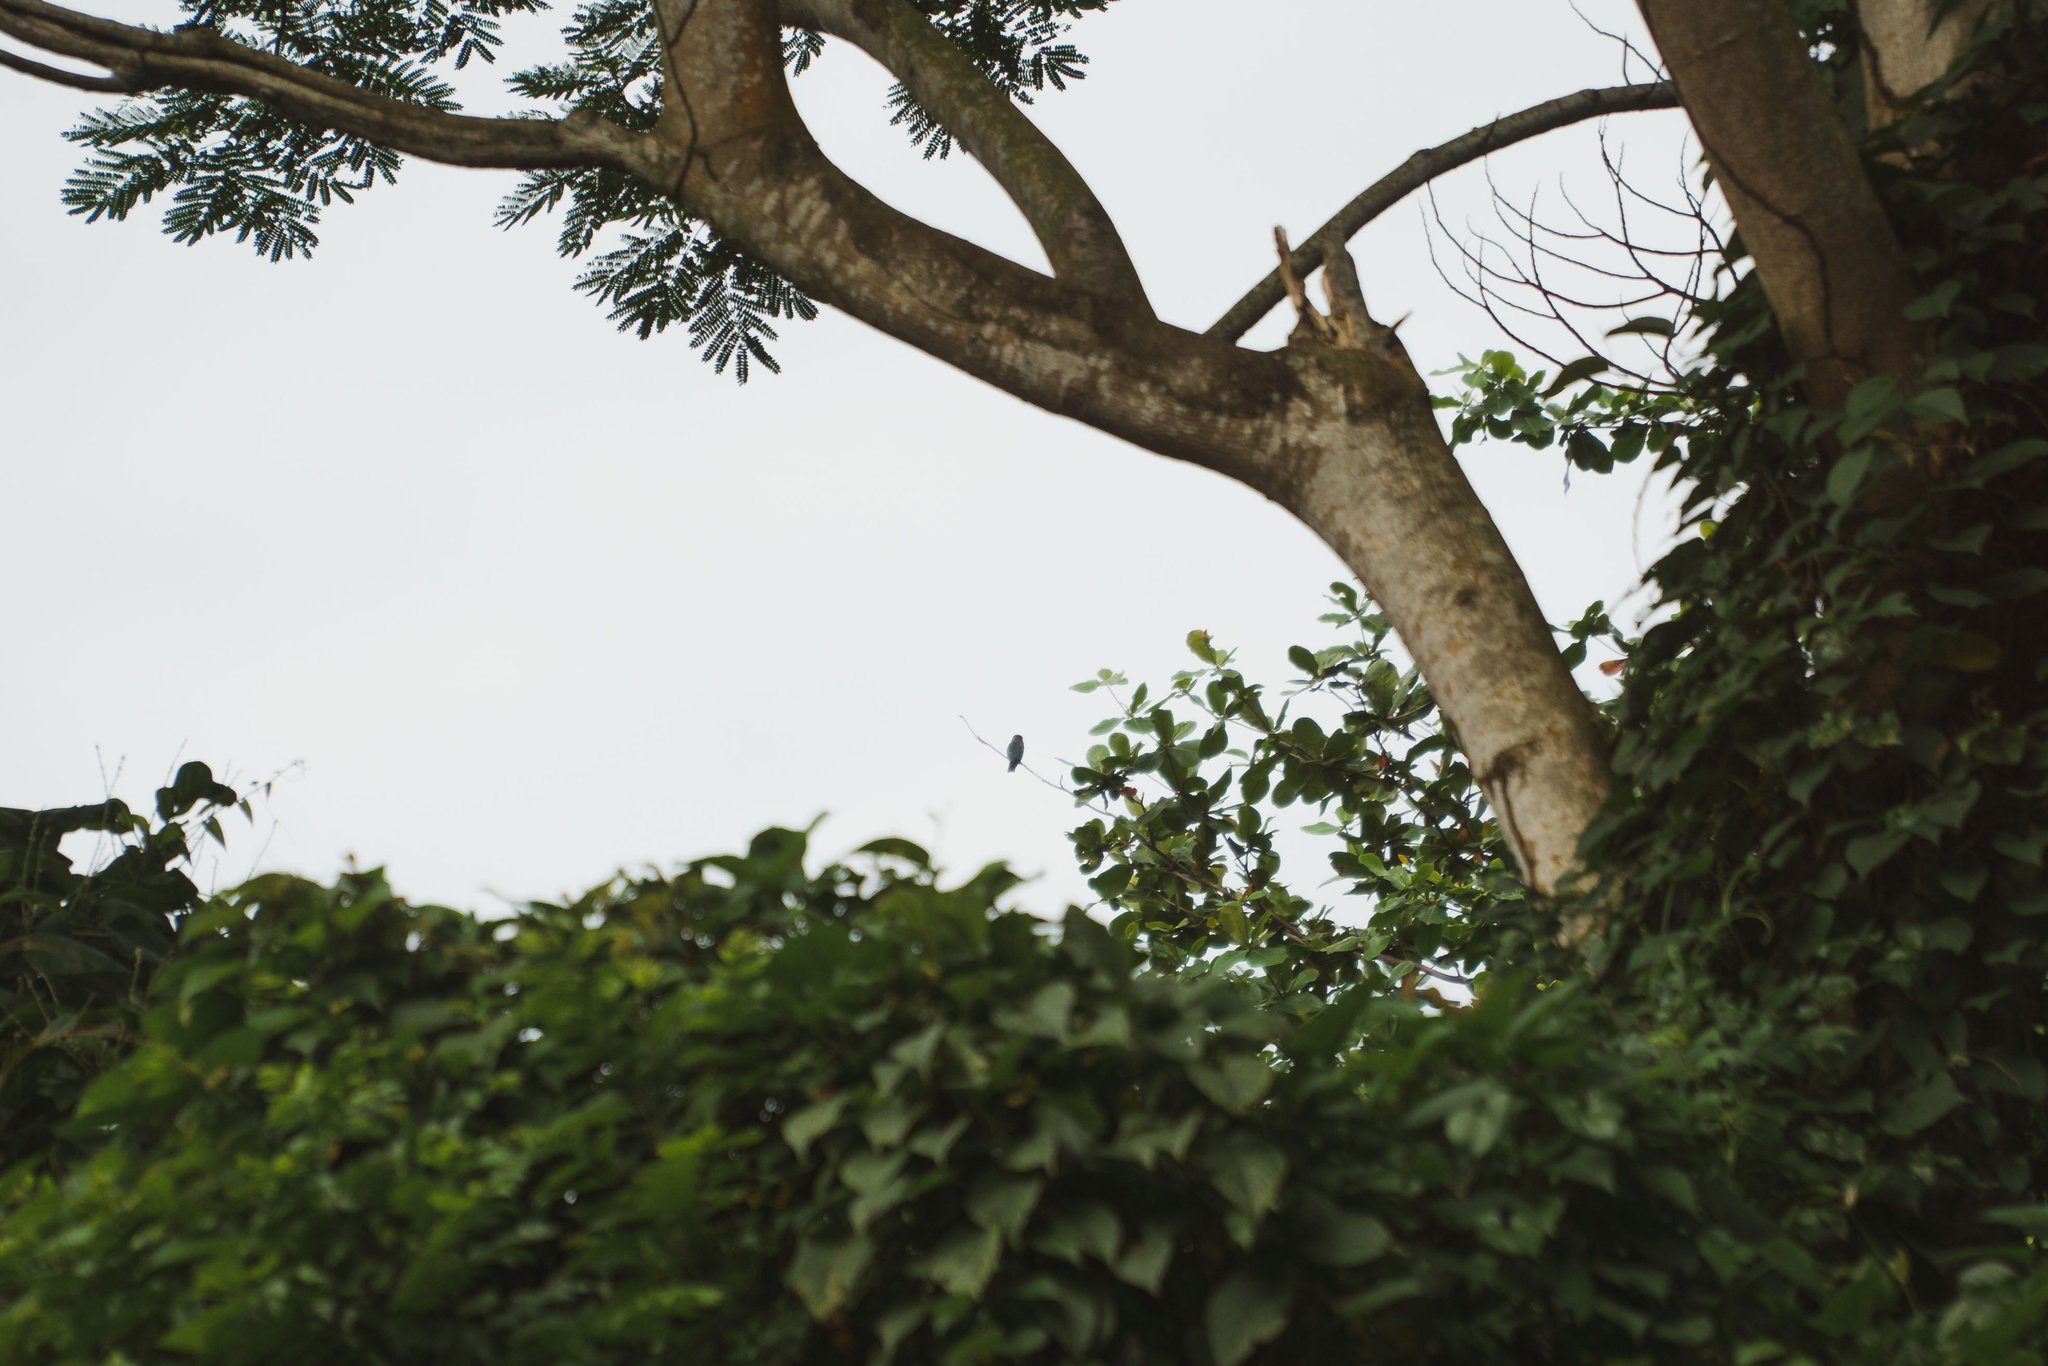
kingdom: Animalia
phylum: Chordata
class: Aves
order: Coraciiformes
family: Coraciidae
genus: Eurystomus
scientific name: Eurystomus orientalis
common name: Oriental dollarbird
